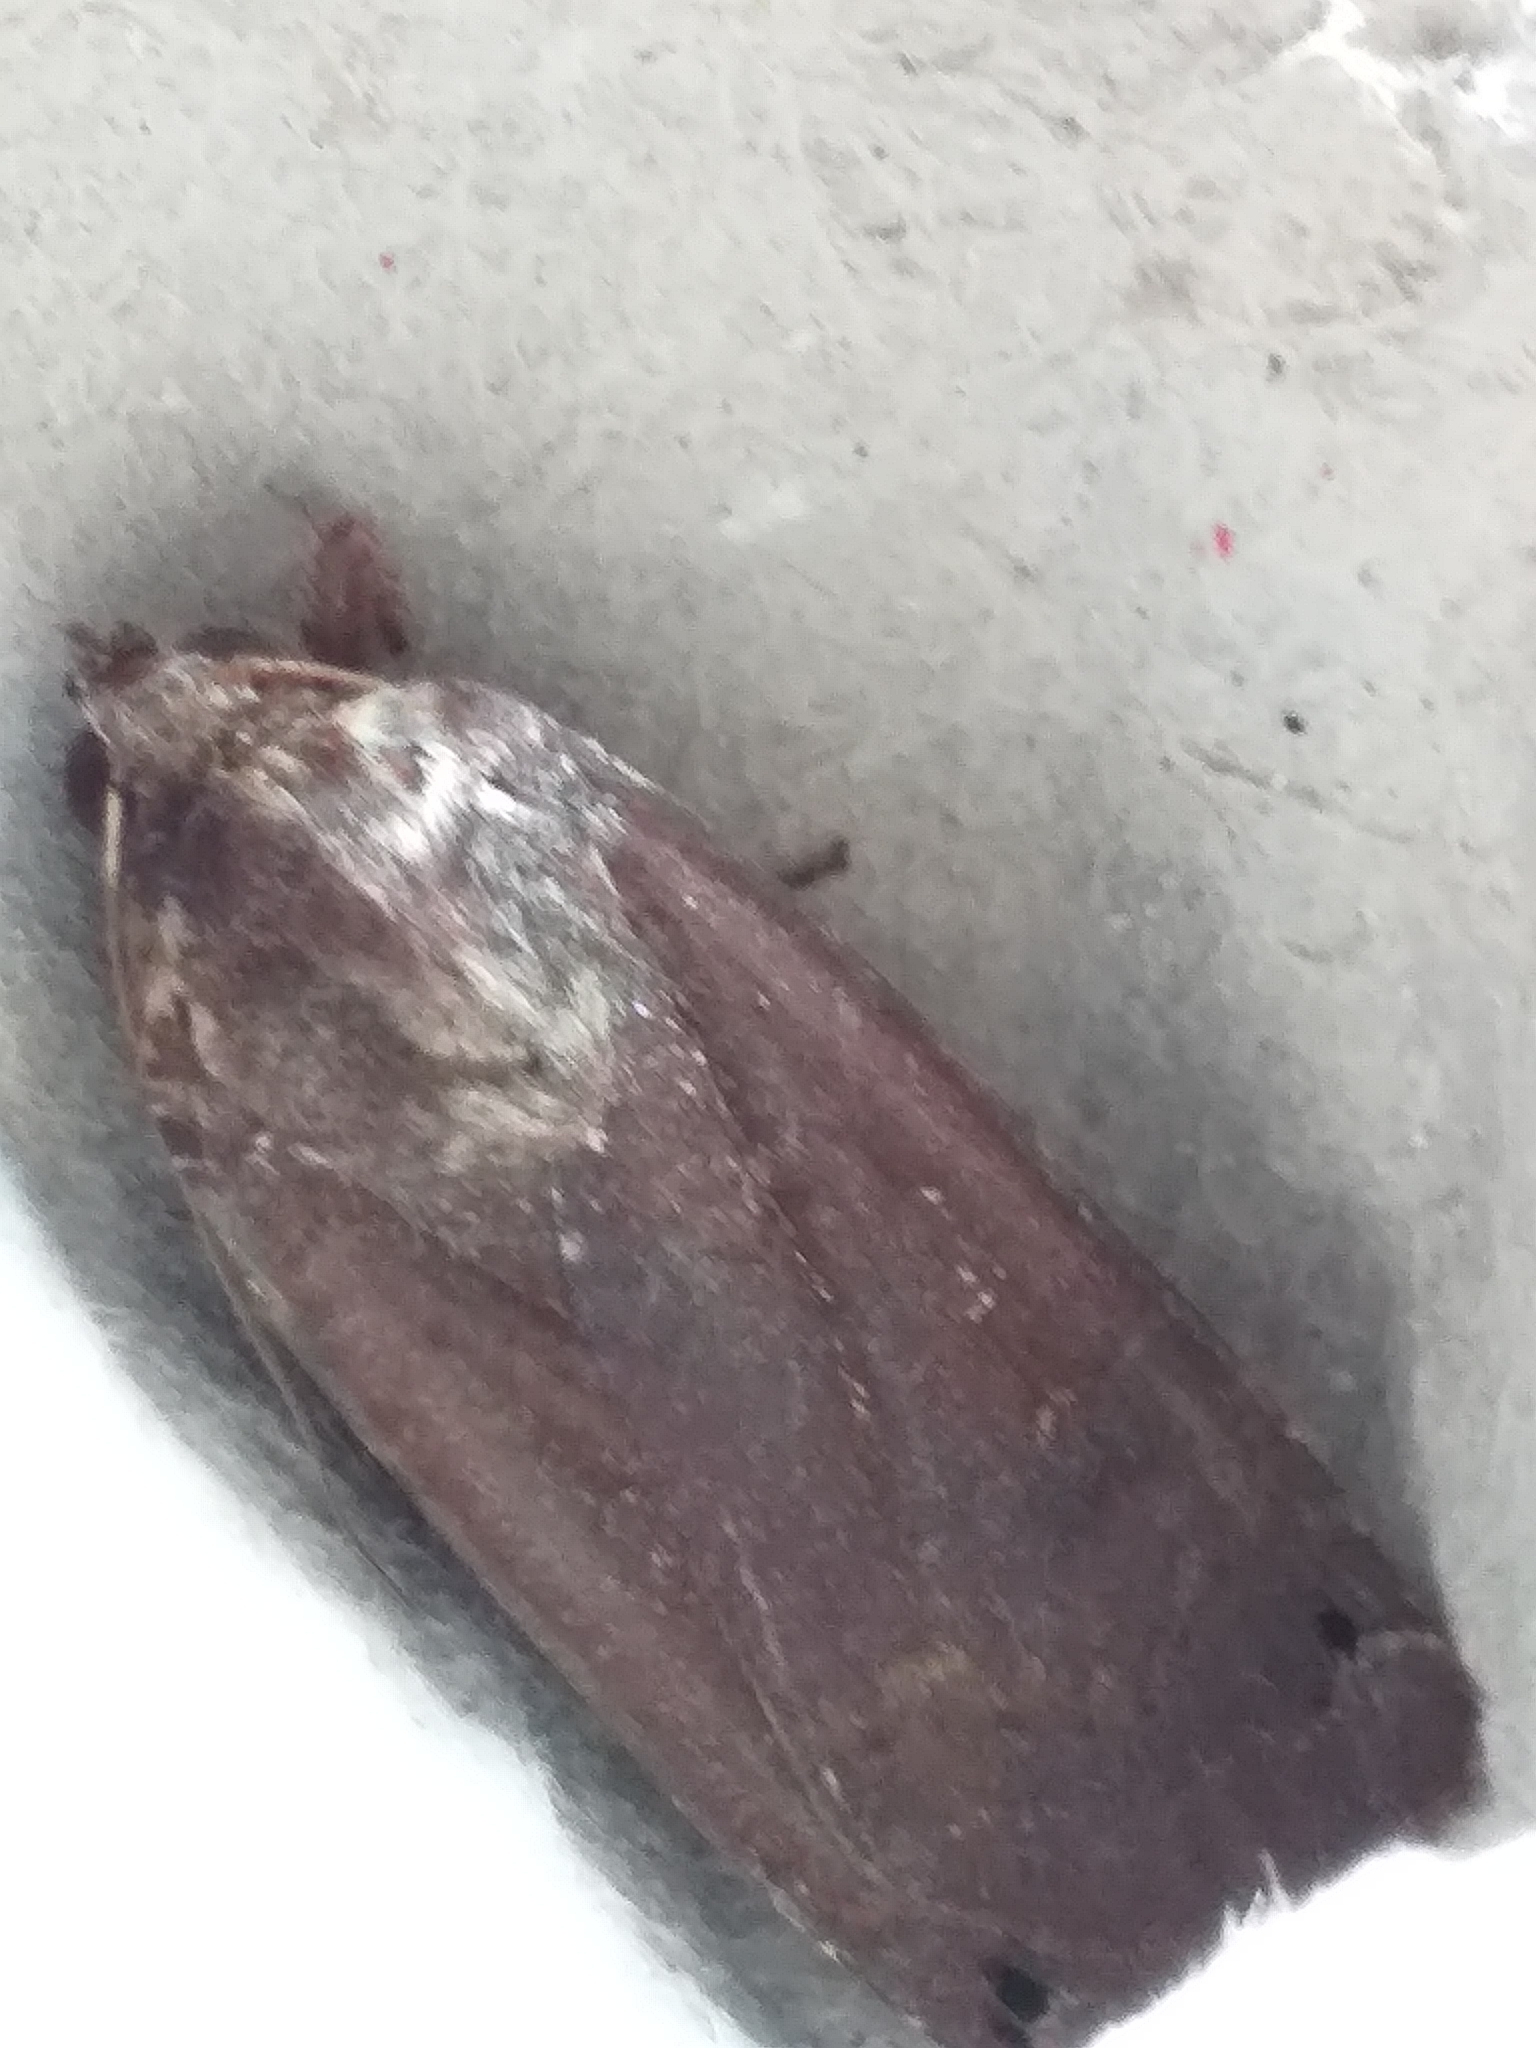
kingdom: Animalia
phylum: Arthropoda
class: Insecta
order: Lepidoptera
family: Noctuidae
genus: Noctua
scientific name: Noctua pronuba
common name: Large yellow underwing
